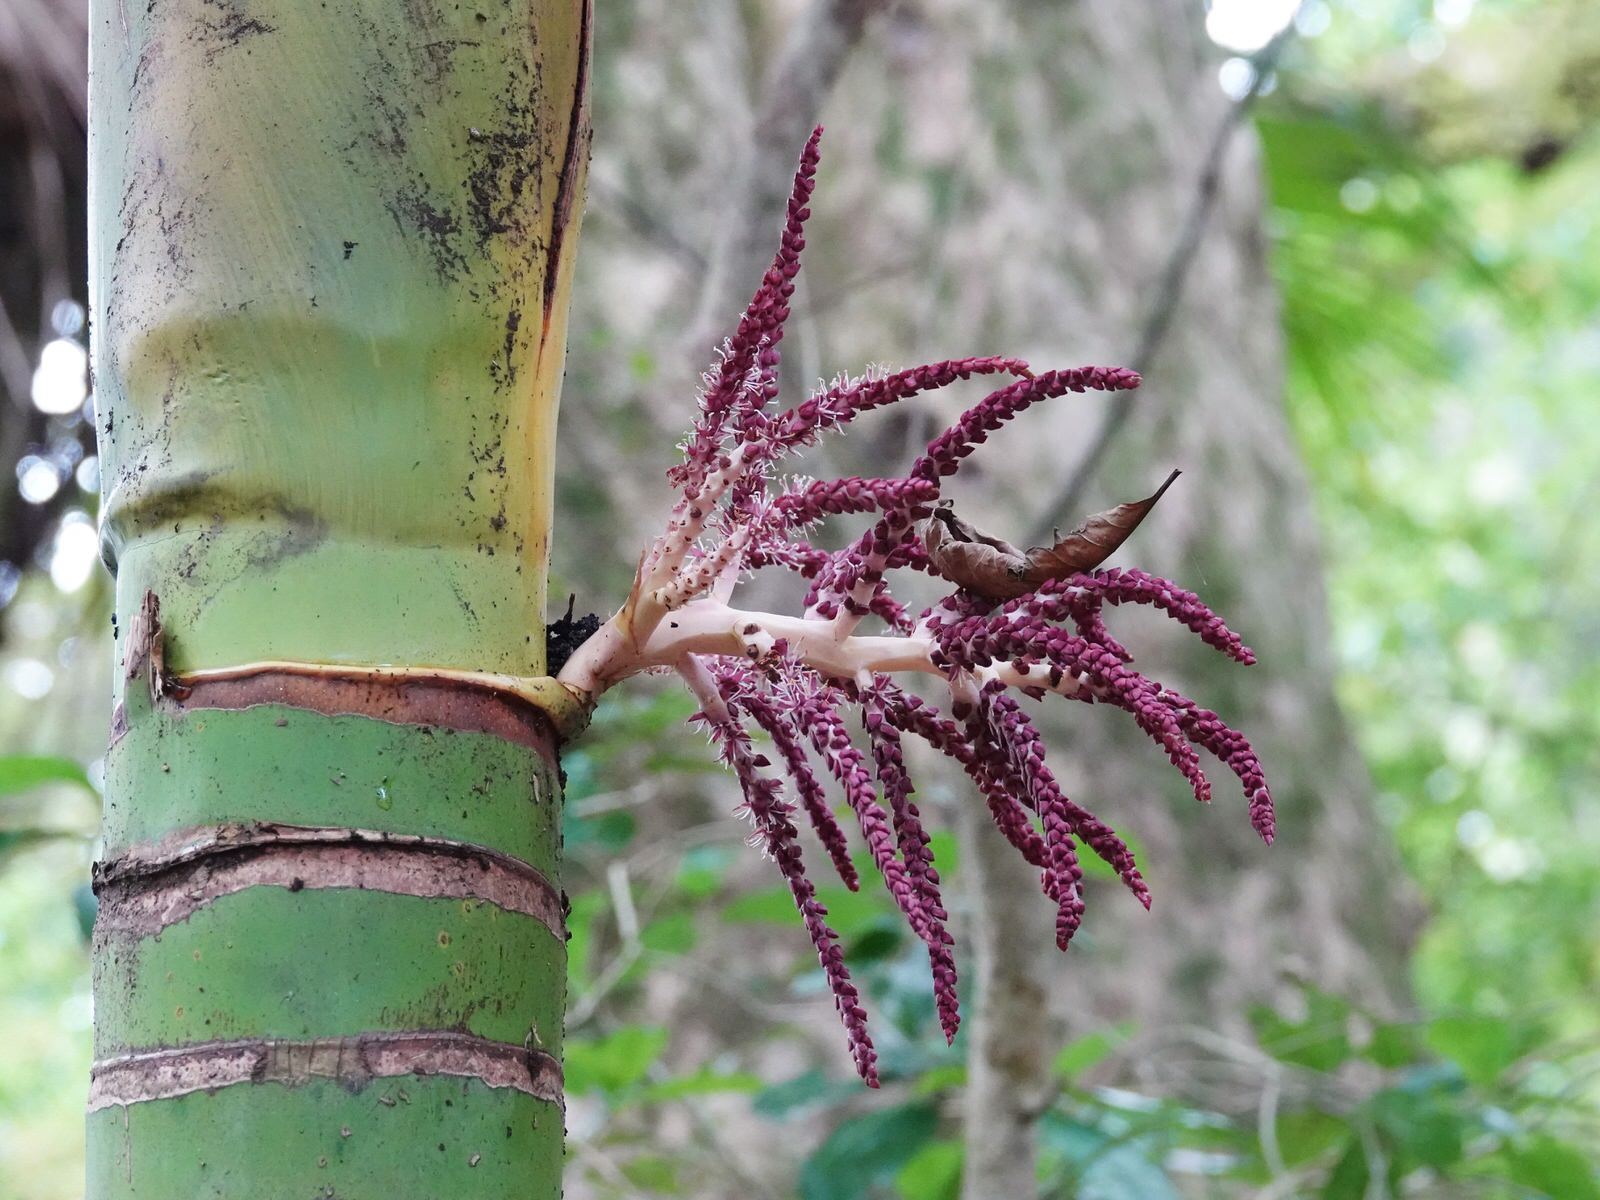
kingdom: Plantae
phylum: Tracheophyta
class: Liliopsida
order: Arecales
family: Arecaceae
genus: Rhopalostylis
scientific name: Rhopalostylis sapida
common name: Feather-duster palm
